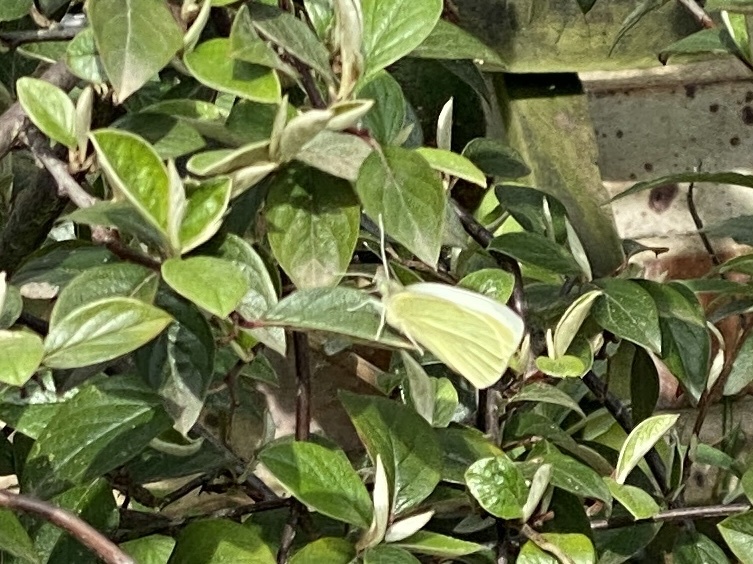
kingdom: Animalia
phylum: Arthropoda
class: Insecta
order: Lepidoptera
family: Pieridae
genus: Pieris
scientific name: Pieris rapae
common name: Small white
